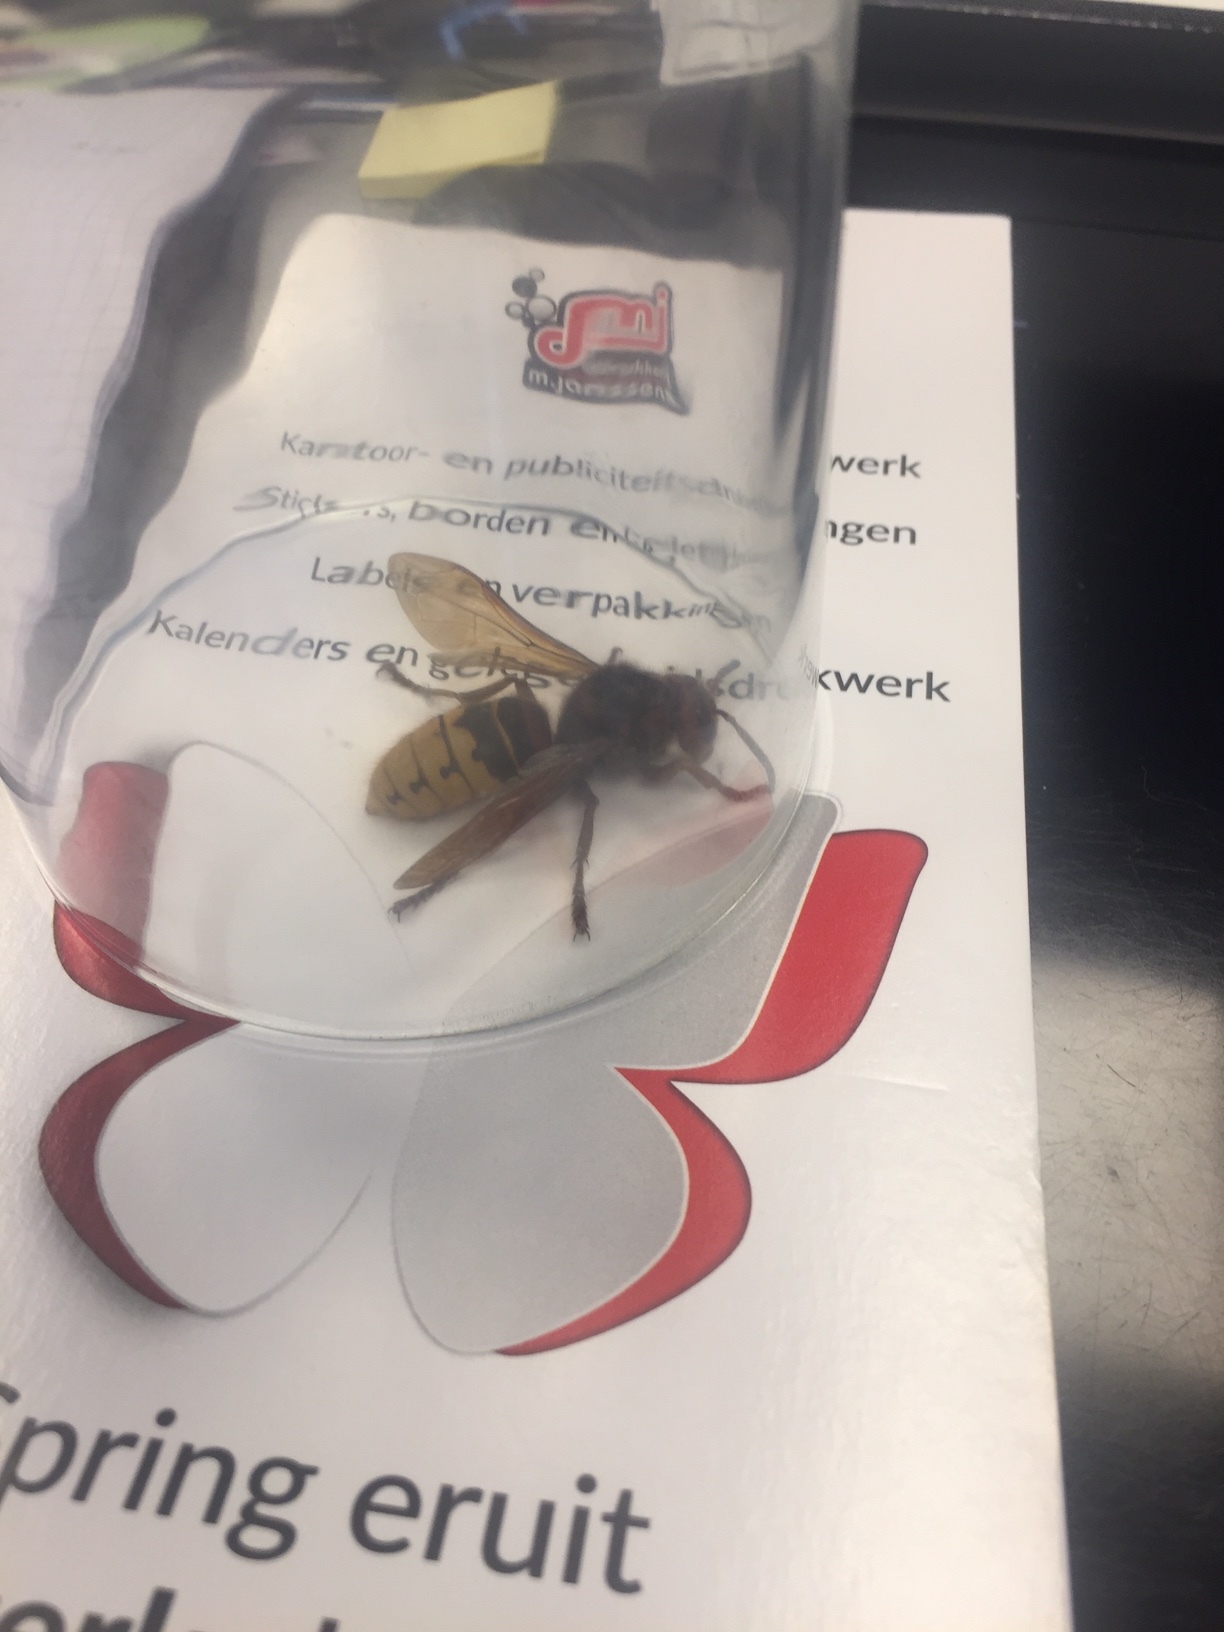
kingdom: Animalia
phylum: Arthropoda
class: Insecta
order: Hymenoptera
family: Vespidae
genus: Vespa
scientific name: Vespa crabro
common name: Hornet
